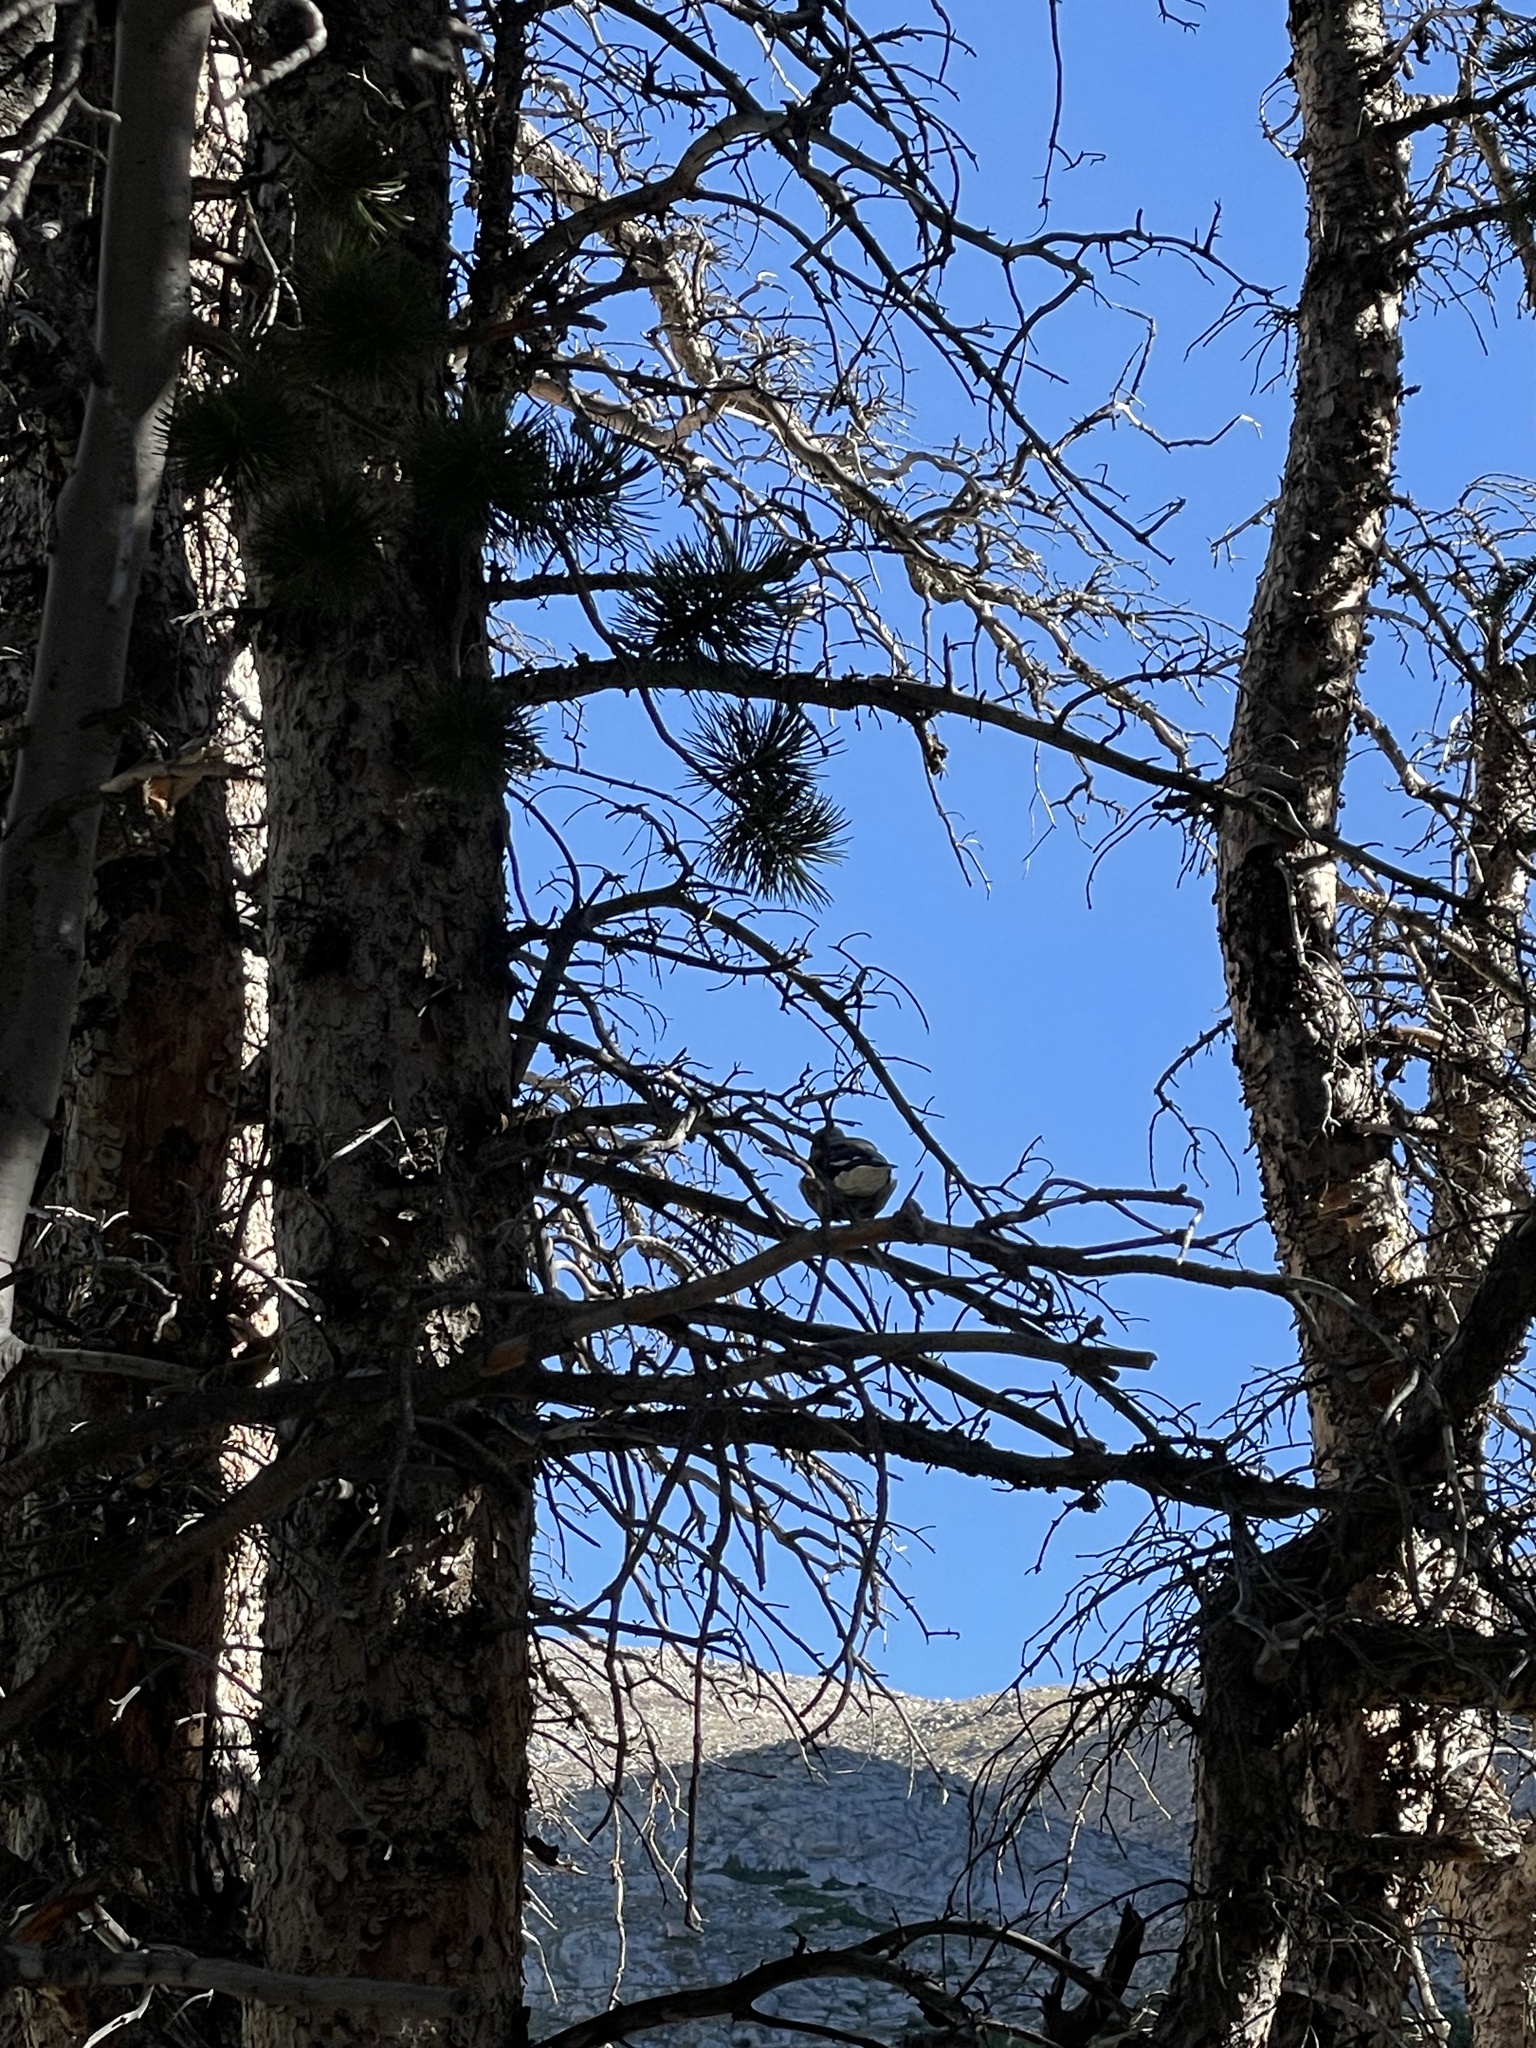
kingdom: Animalia
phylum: Chordata
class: Aves
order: Passeriformes
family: Corvidae
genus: Nucifraga
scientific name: Nucifraga columbiana
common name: Clark's nutcracker
